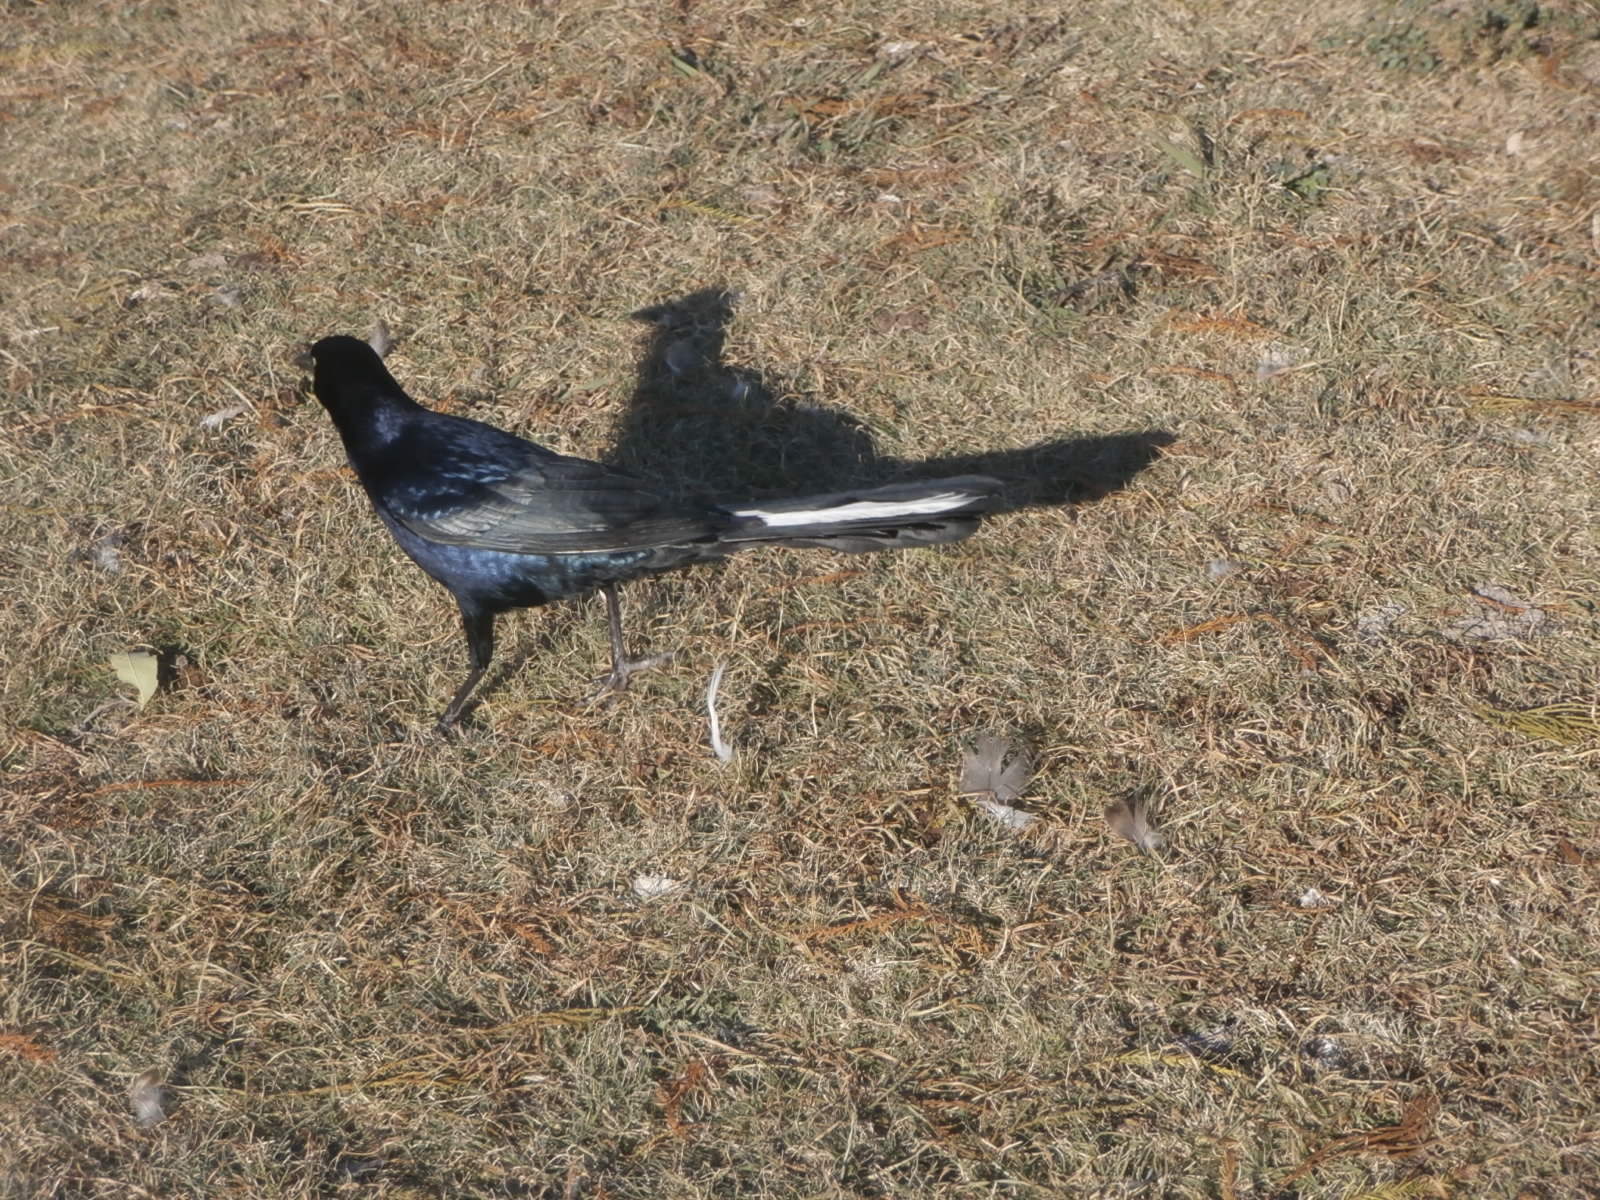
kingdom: Animalia
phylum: Chordata
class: Aves
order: Passeriformes
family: Icteridae
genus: Quiscalus
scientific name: Quiscalus mexicanus
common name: Great-tailed grackle
